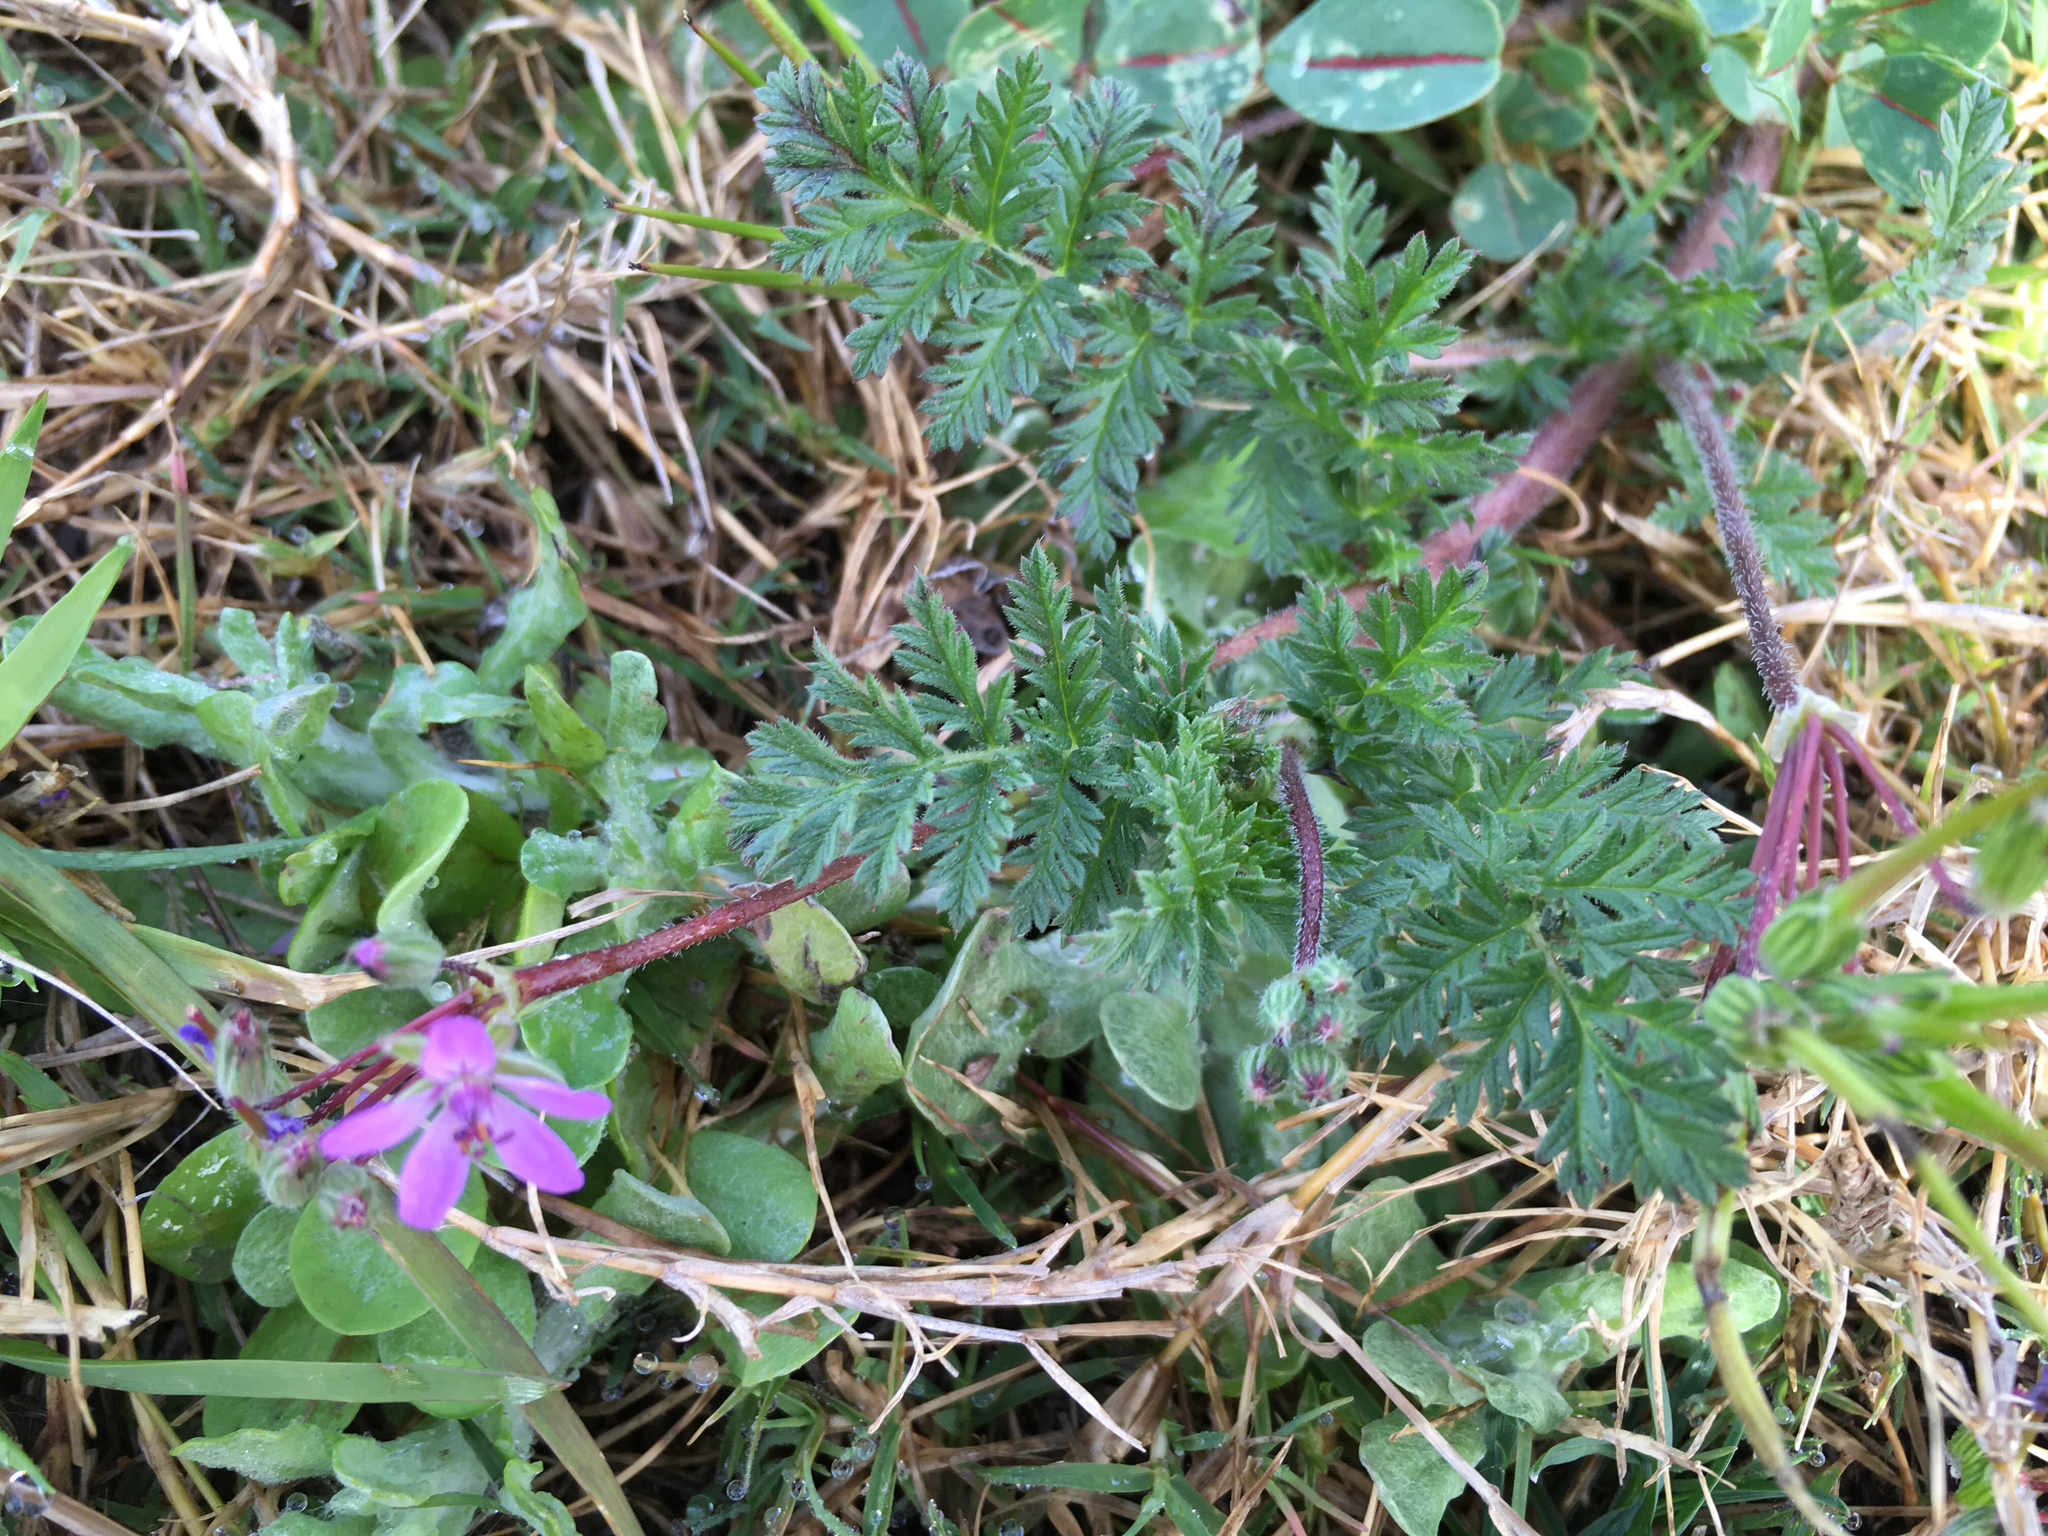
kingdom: Plantae
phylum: Tracheophyta
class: Magnoliopsida
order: Geraniales
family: Geraniaceae
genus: Erodium
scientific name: Erodium cicutarium
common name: Common stork's-bill
